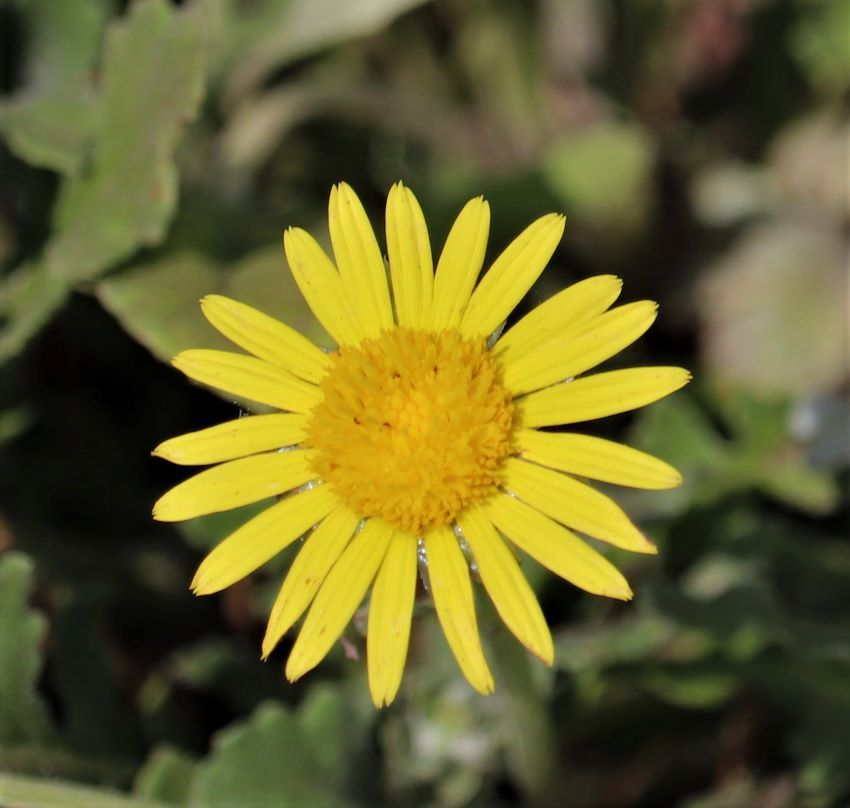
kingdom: Plantae
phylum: Tracheophyta
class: Magnoliopsida
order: Asterales
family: Asteraceae
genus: Arctotis
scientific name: Arctotis arctotoides
